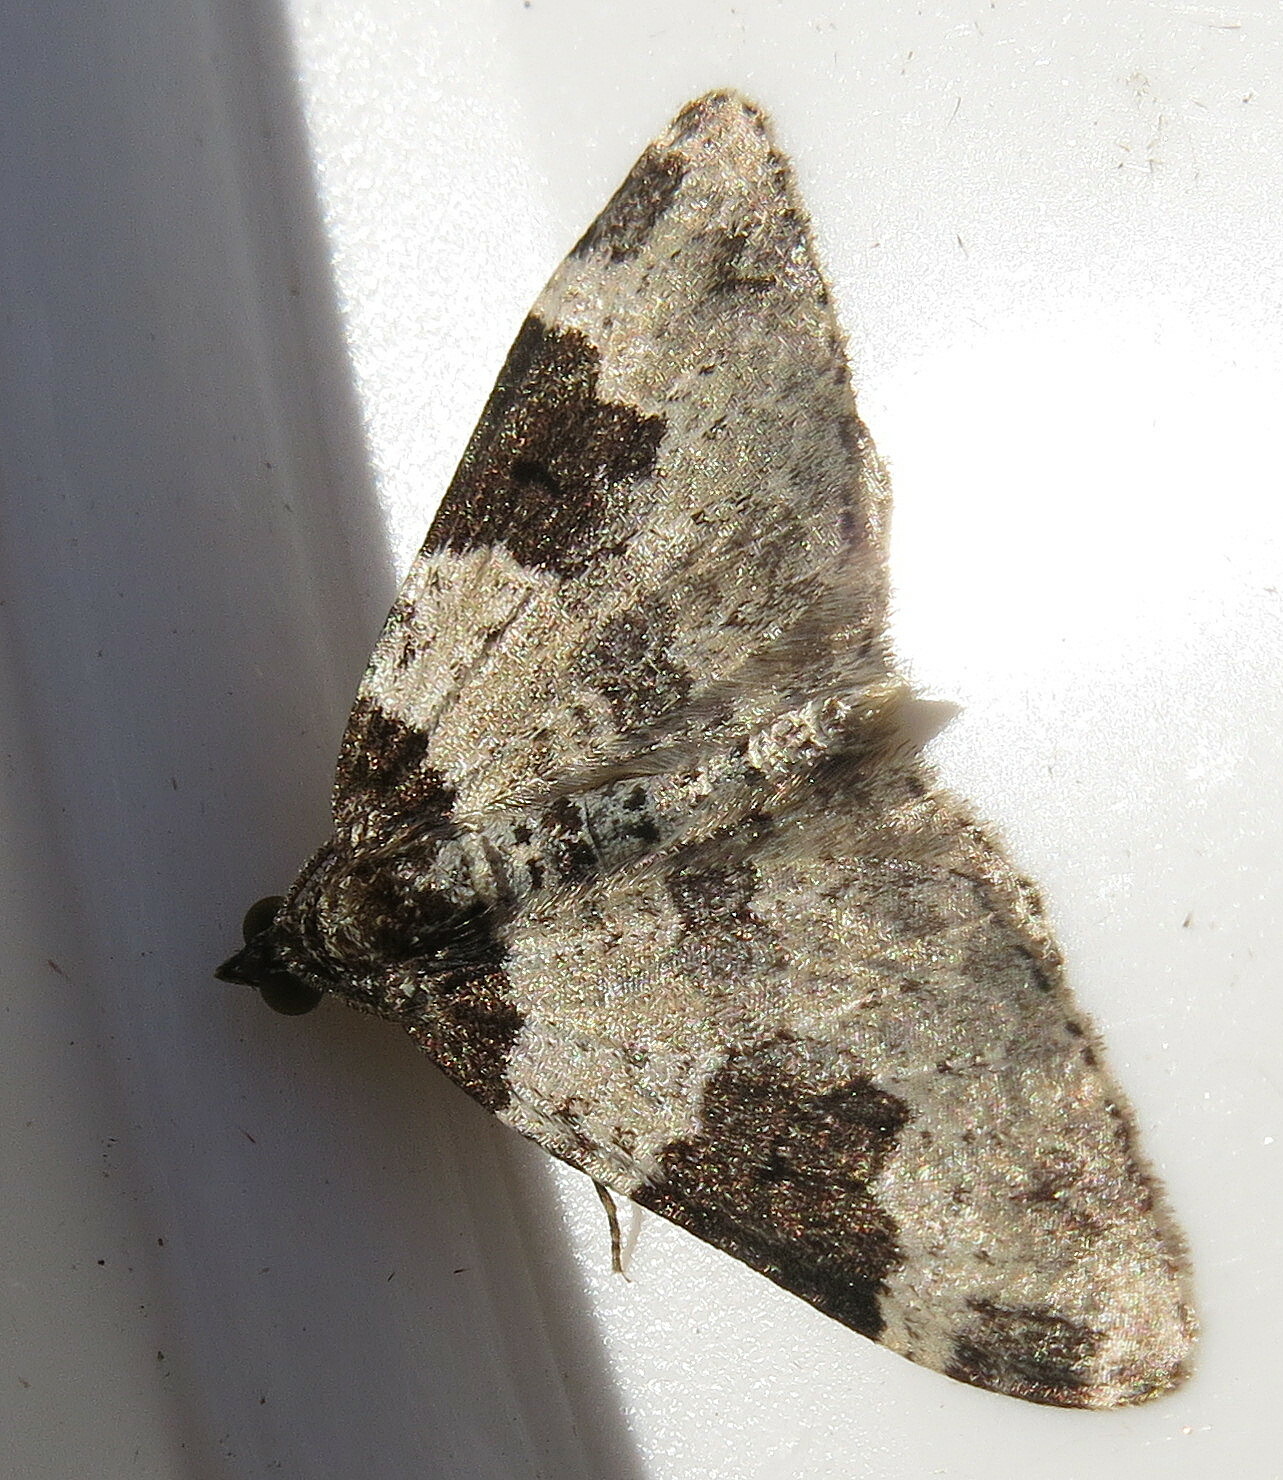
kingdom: Animalia
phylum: Arthropoda
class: Insecta
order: Lepidoptera
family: Geometridae
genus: Xanthorhoe
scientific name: Xanthorhoe fluctuata
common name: Garden carpet
